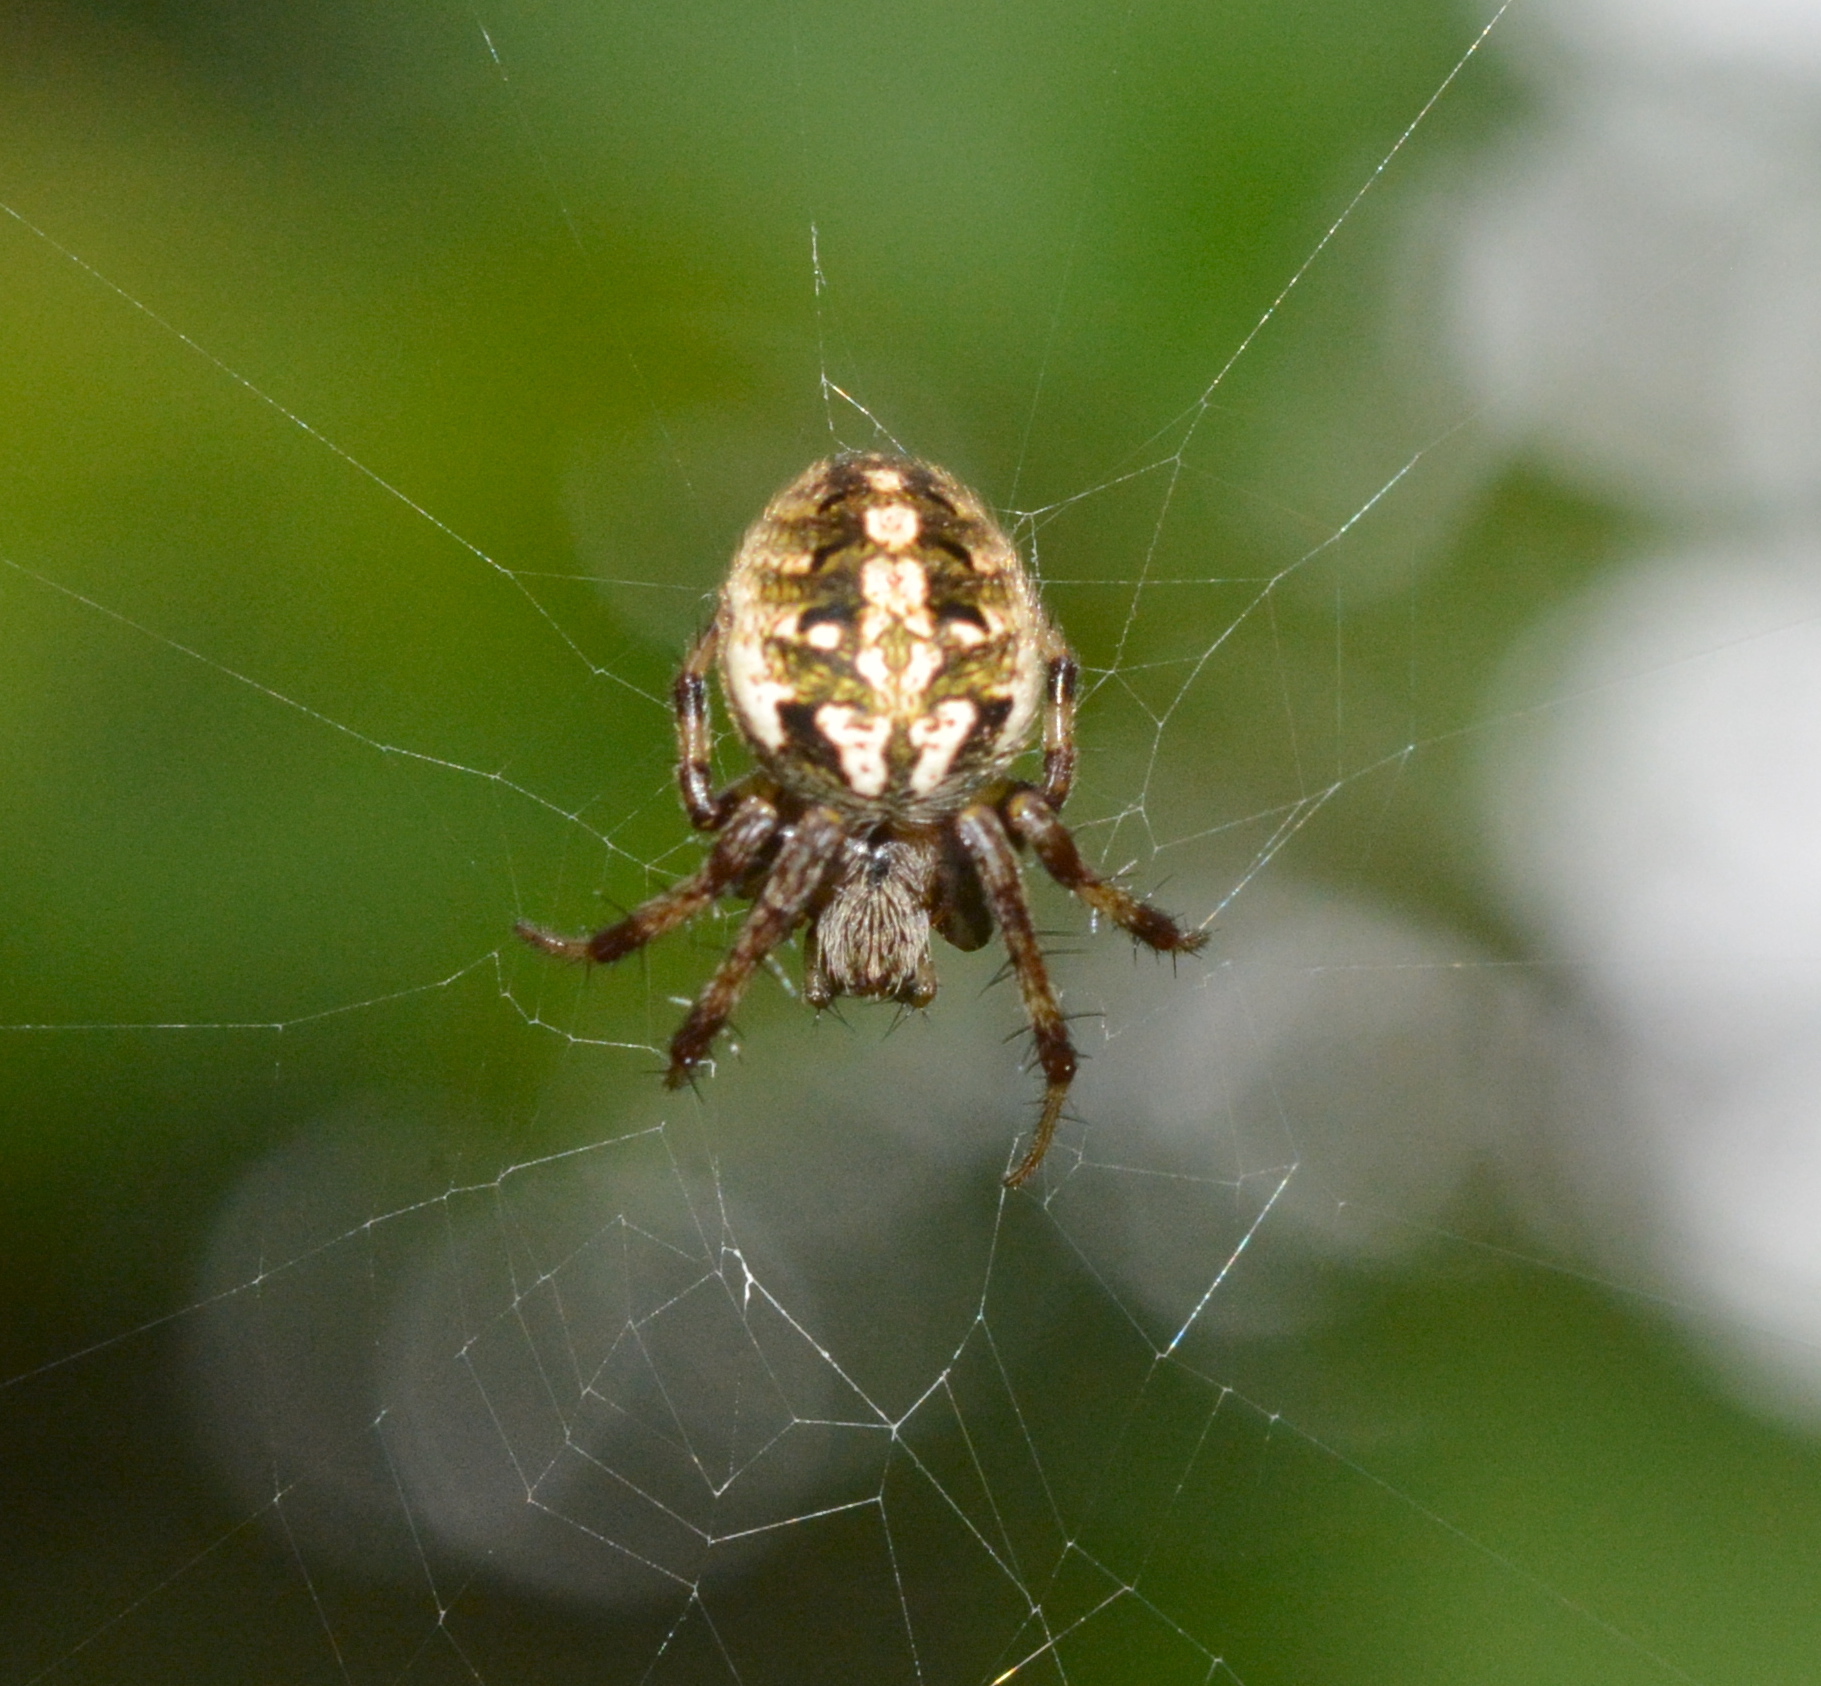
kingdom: Animalia
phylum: Arthropoda
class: Arachnida
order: Araneae
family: Araneidae
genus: Neoscona
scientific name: Neoscona arabesca
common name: Orb weavers
